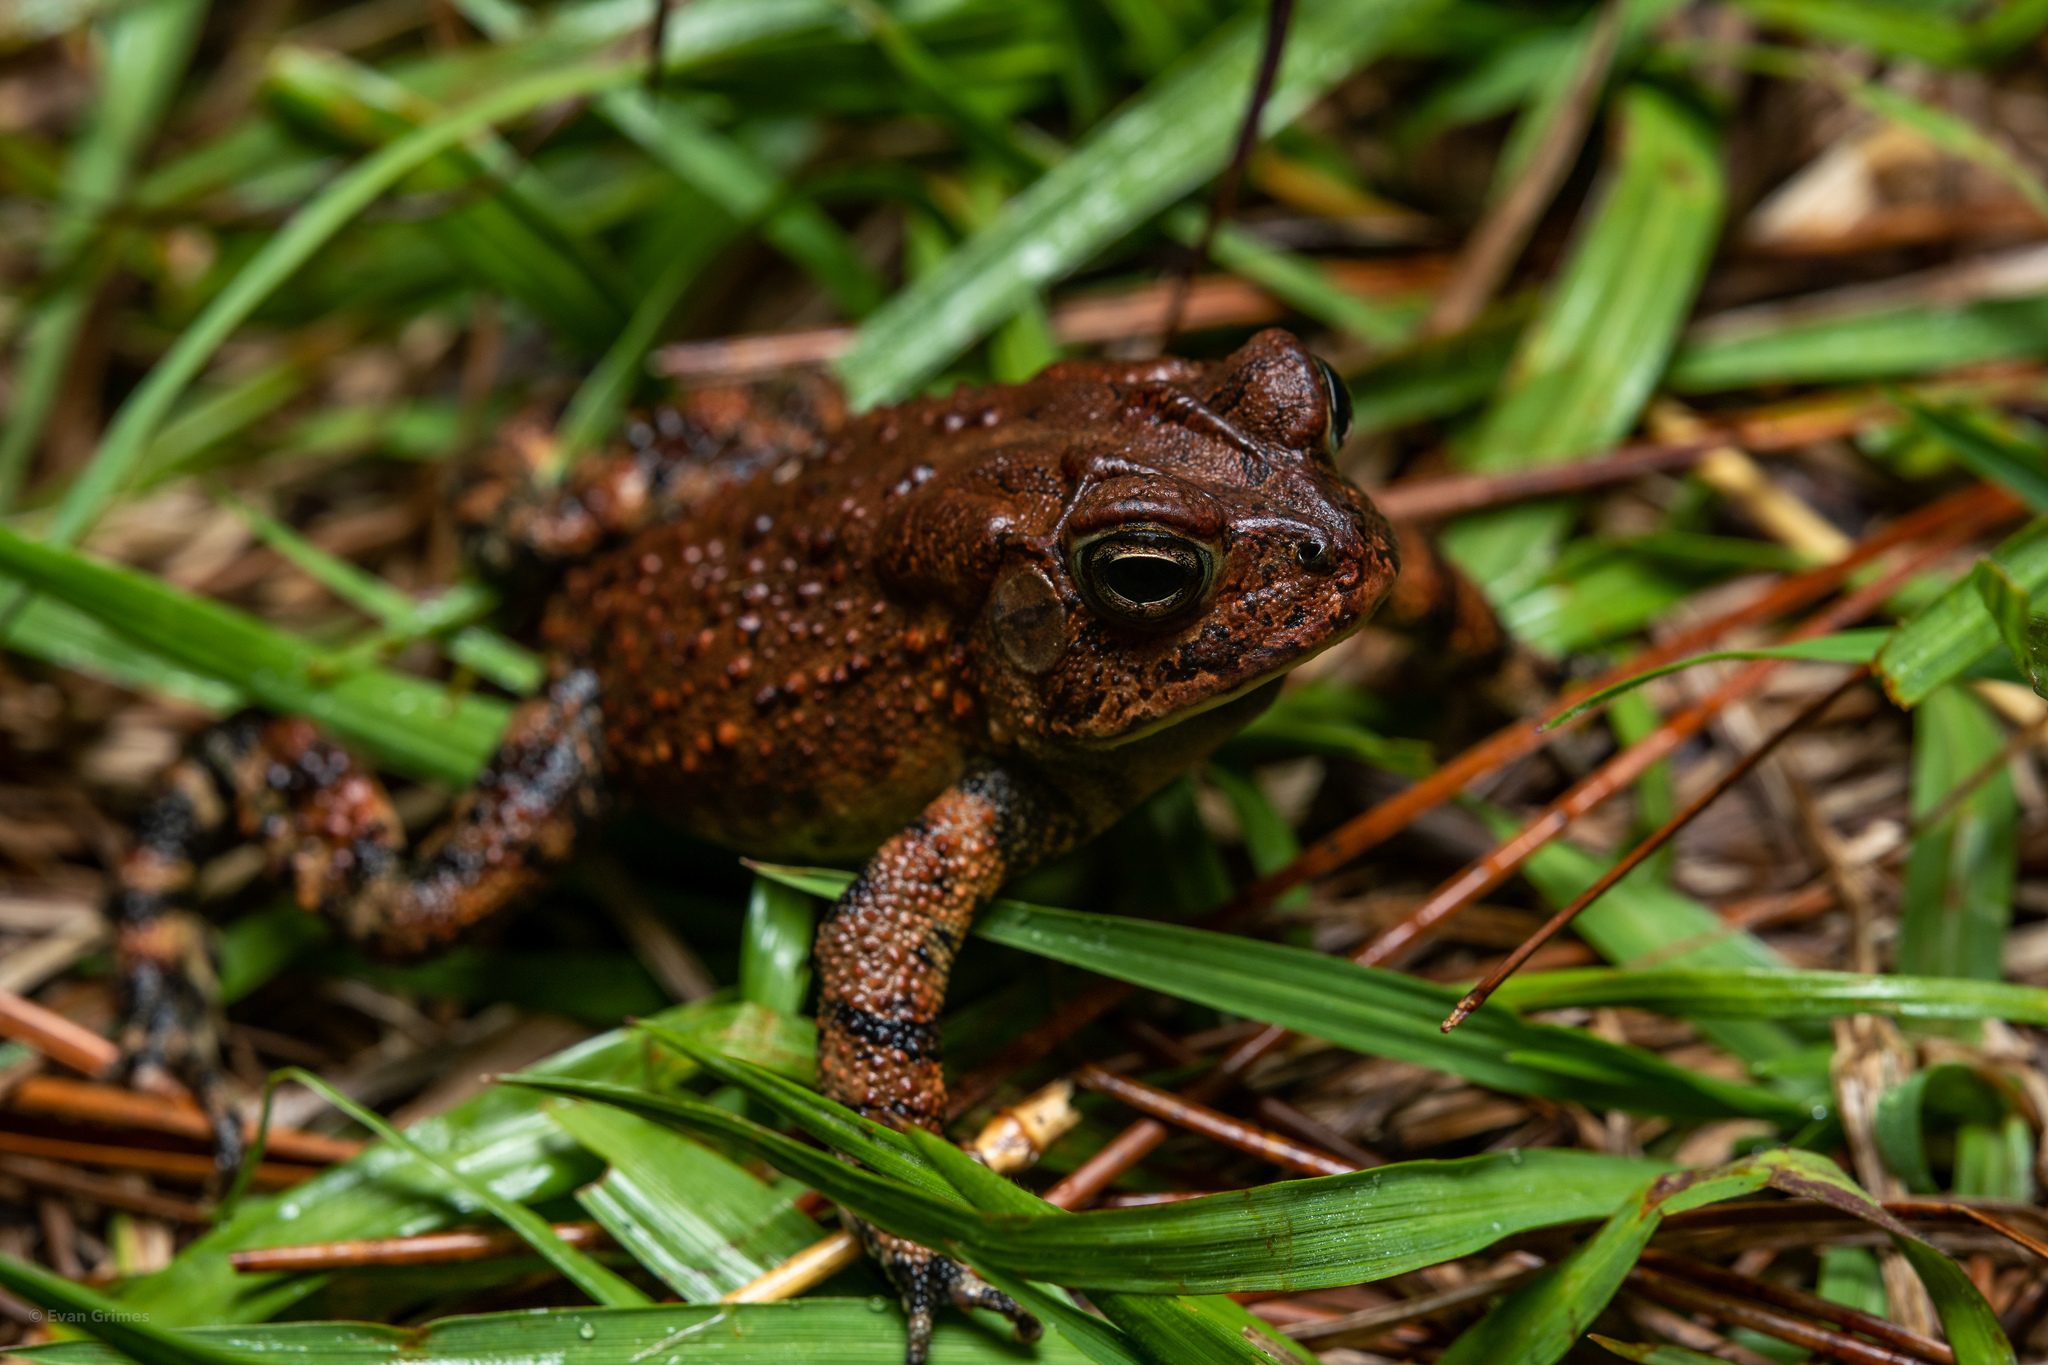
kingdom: Animalia
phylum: Chordata
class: Amphibia
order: Anura
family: Bufonidae
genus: Anaxyrus
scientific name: Anaxyrus terrestris
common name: Southern toad
